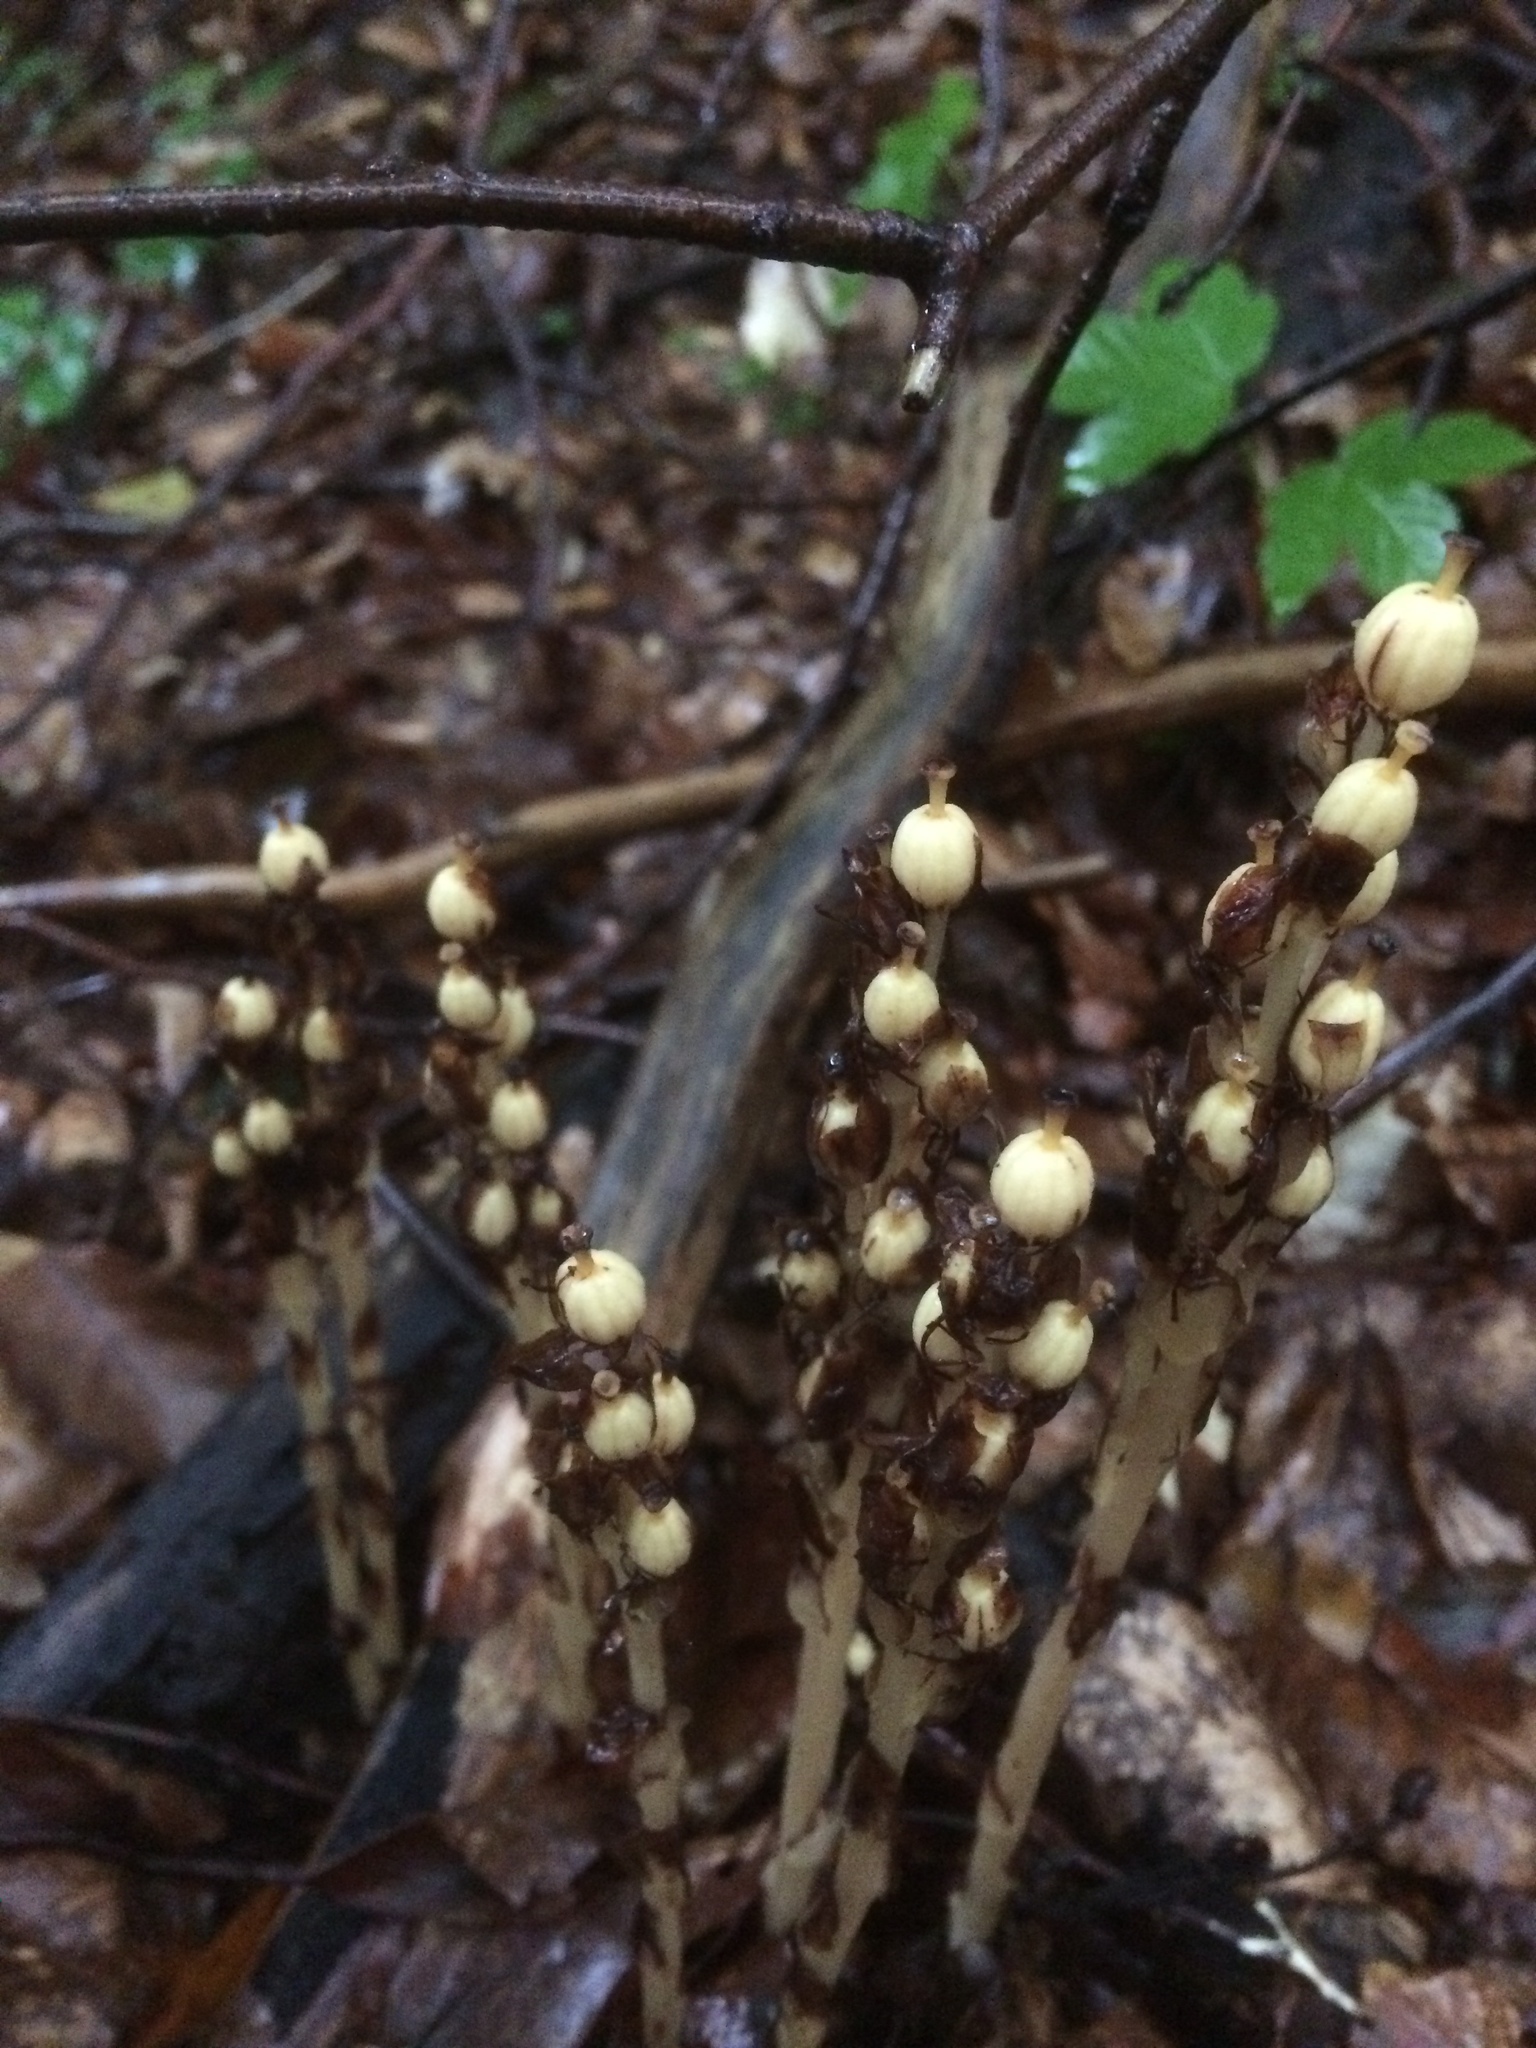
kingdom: Plantae
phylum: Tracheophyta
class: Magnoliopsida
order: Ericales
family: Ericaceae
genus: Hypopitys
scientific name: Hypopitys monotropa
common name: Yellow bird's-nest
